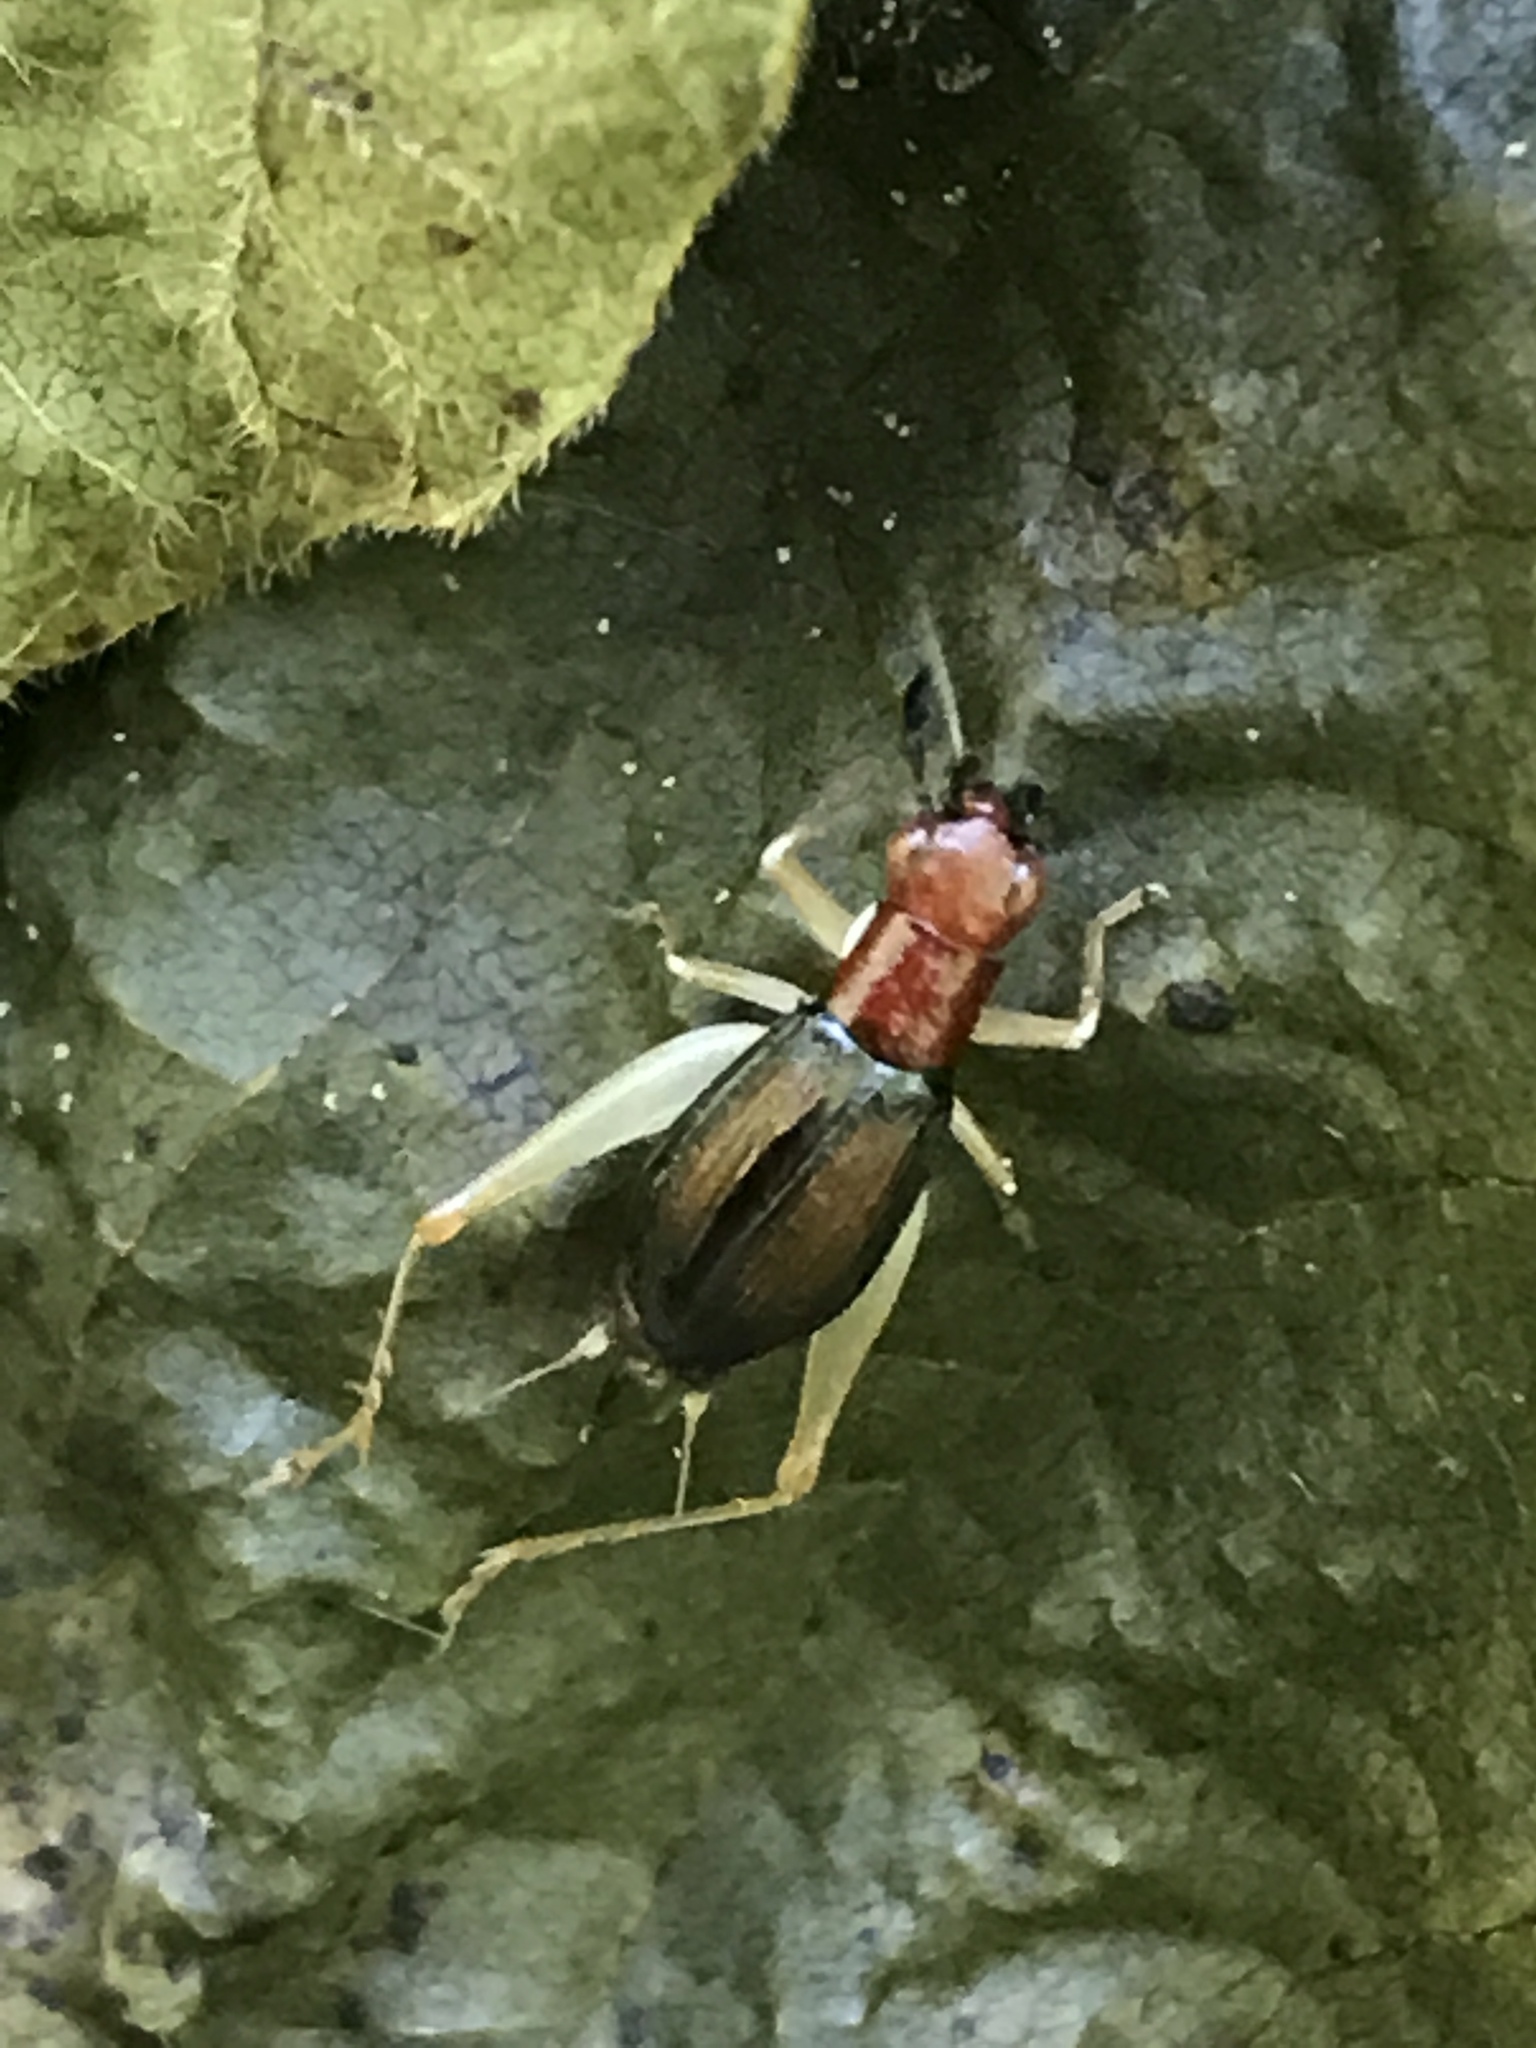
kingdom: Animalia
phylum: Arthropoda
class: Insecta
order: Orthoptera
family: Trigonidiidae
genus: Phyllopalpus
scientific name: Phyllopalpus pulchellus
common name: Handsome trig
